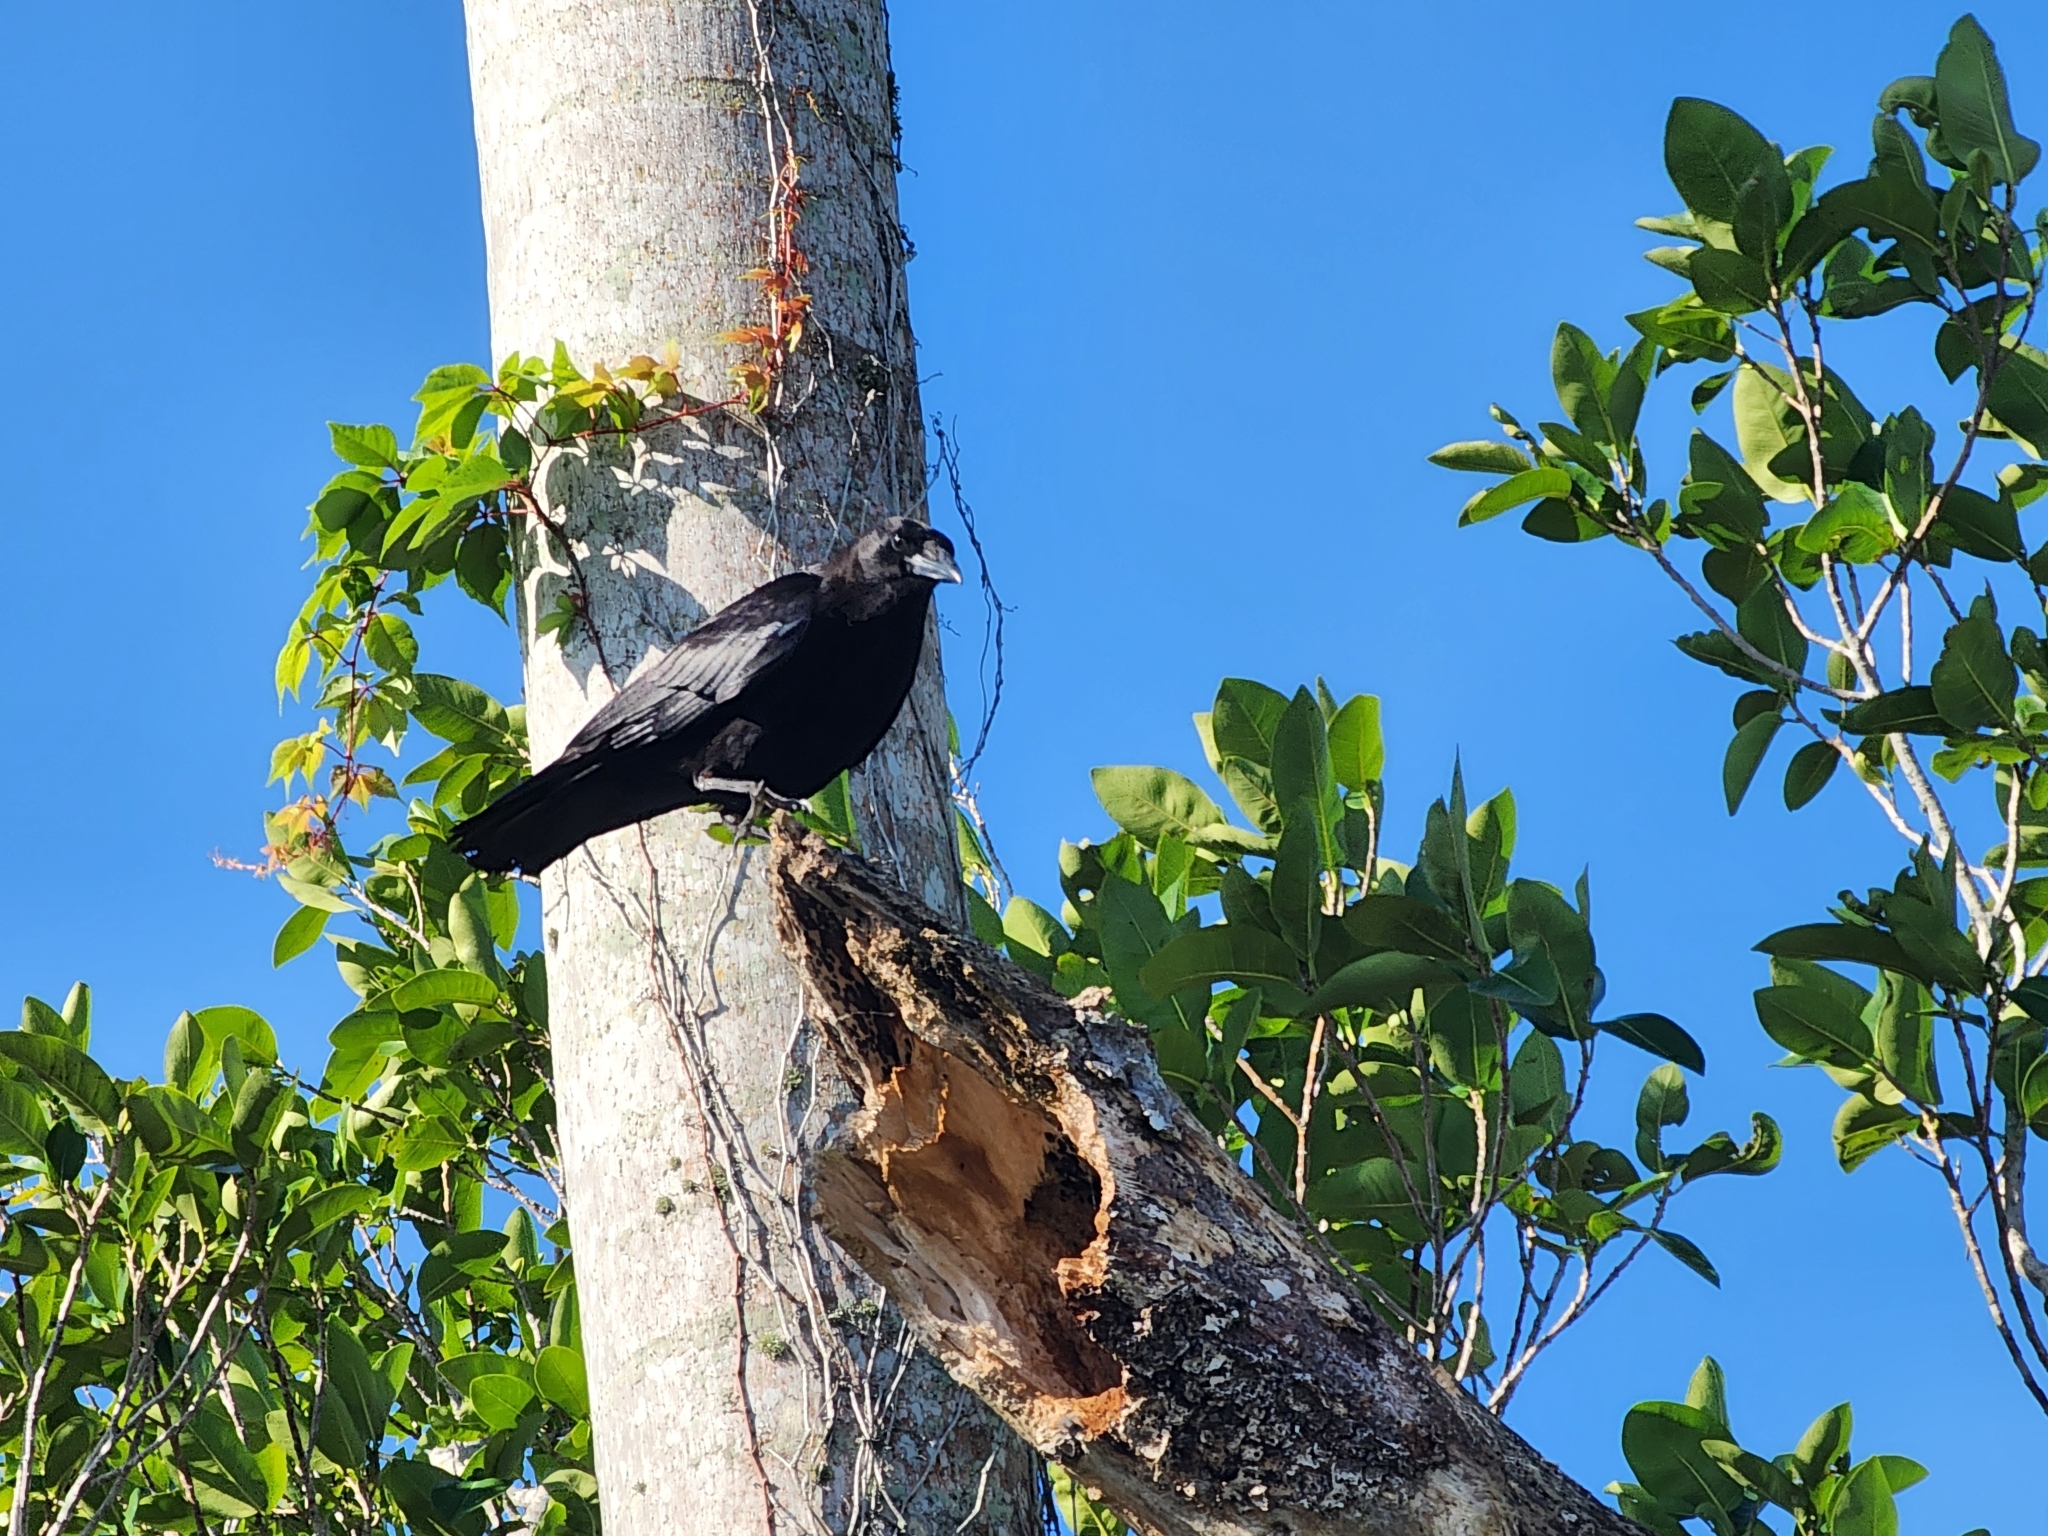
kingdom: Animalia
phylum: Chordata
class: Aves
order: Passeriformes
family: Corvidae
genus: Corvus
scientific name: Corvus ossifragus
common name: Fish crow
